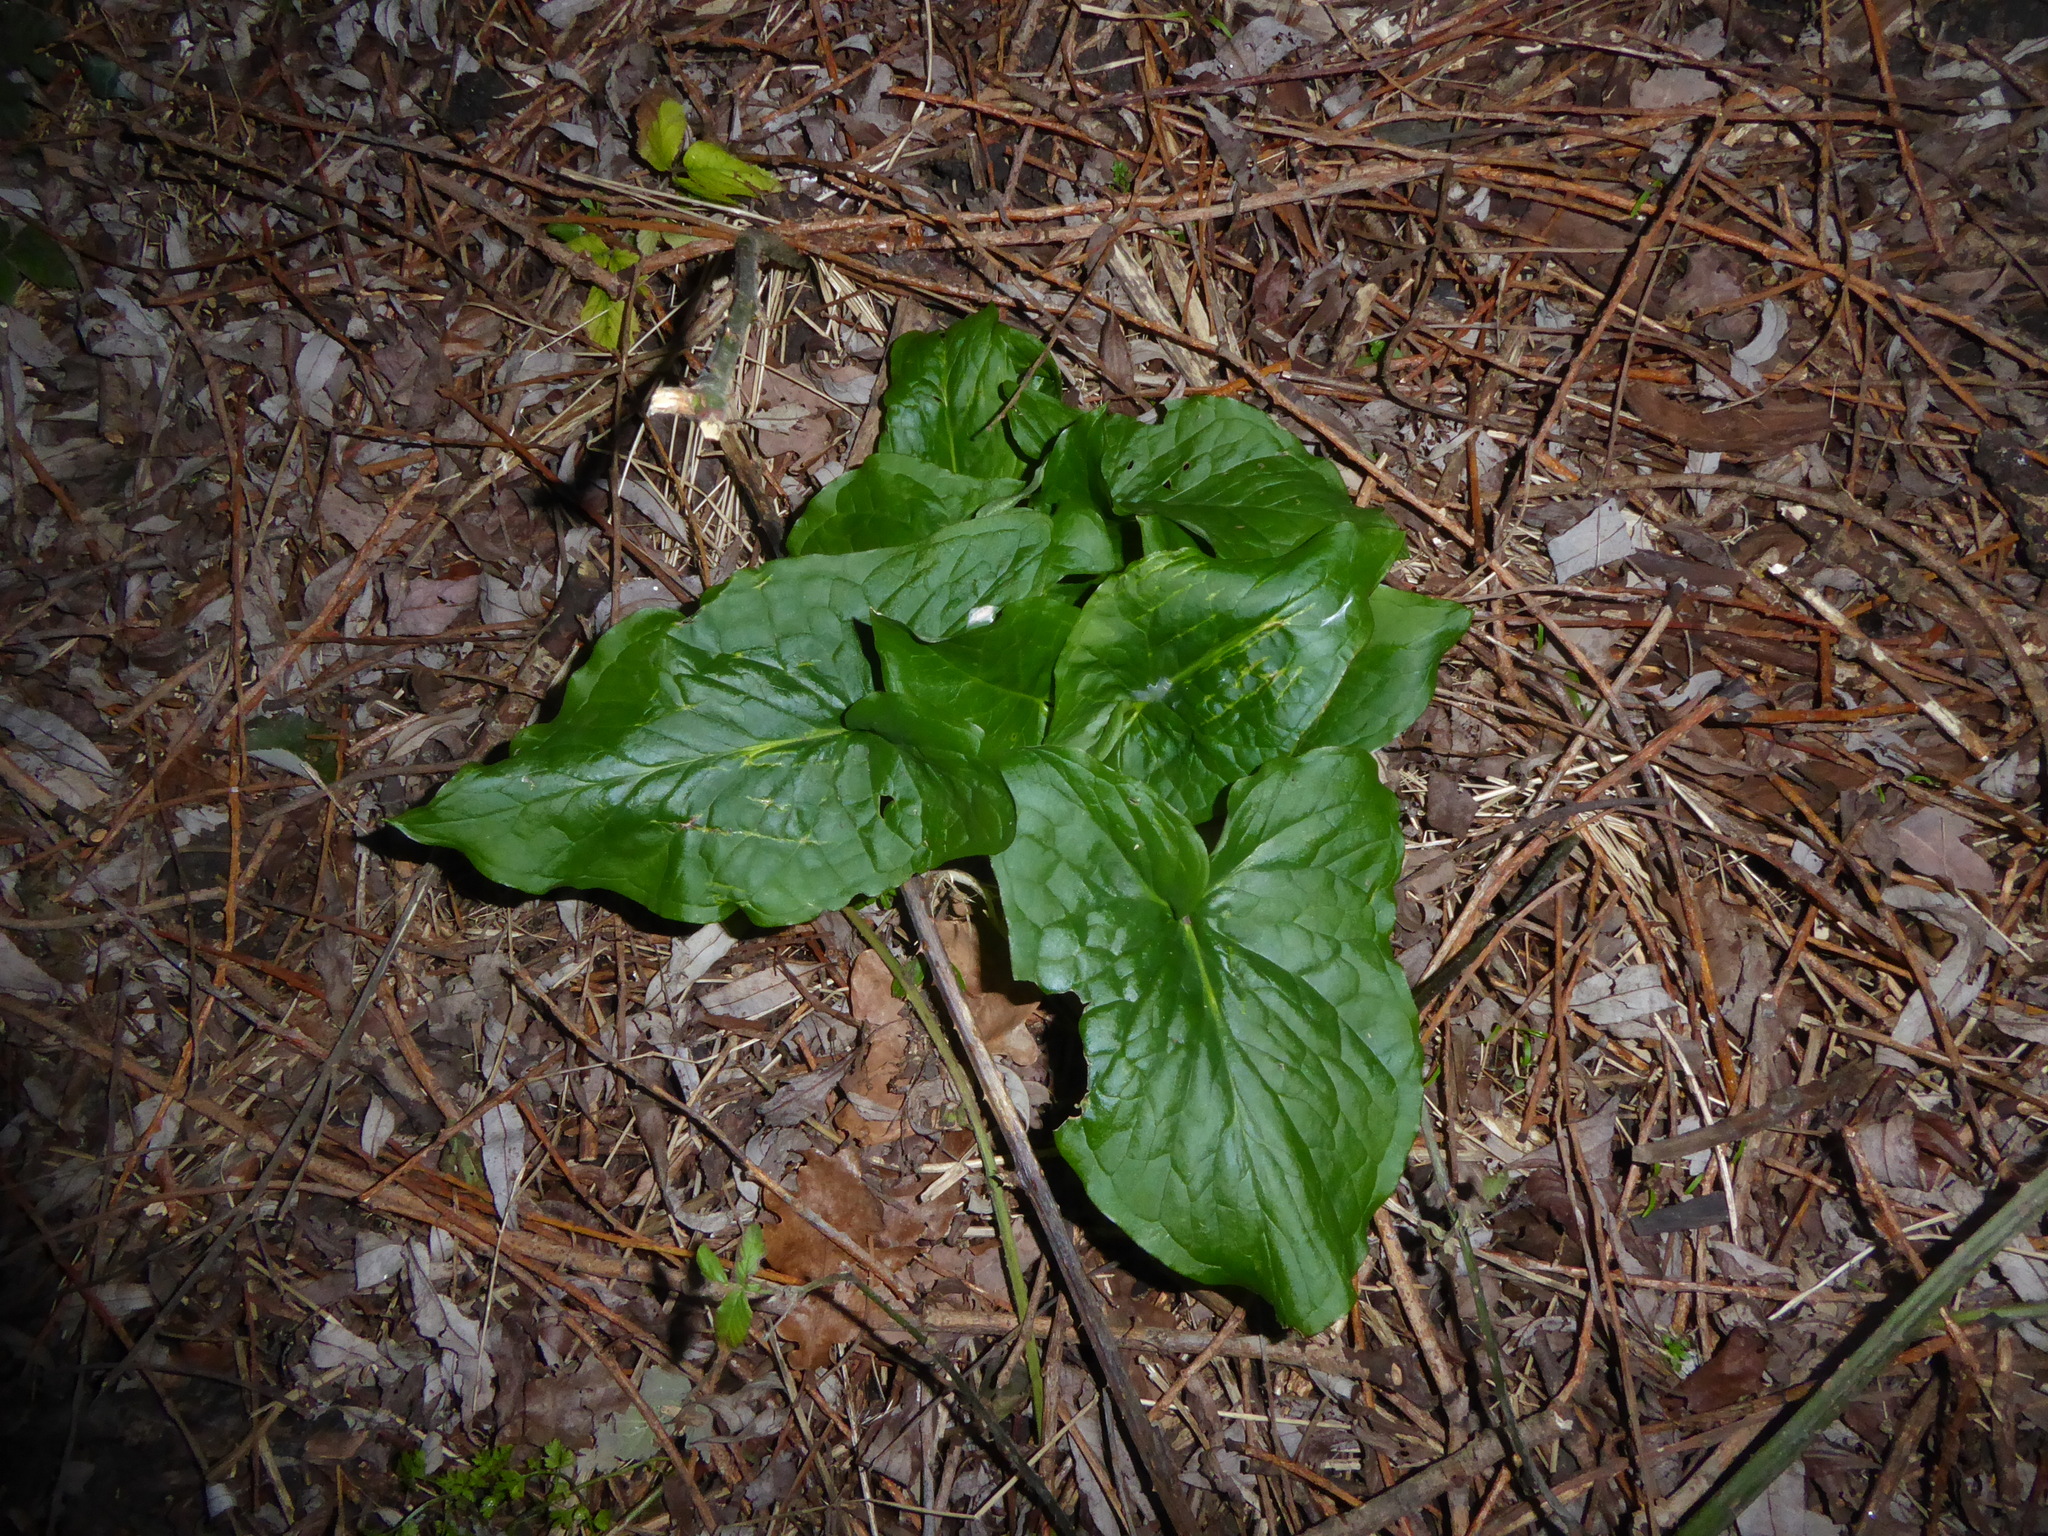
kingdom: Plantae
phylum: Tracheophyta
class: Liliopsida
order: Alismatales
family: Araceae
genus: Arum
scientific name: Arum maculatum
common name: Lords-and-ladies
